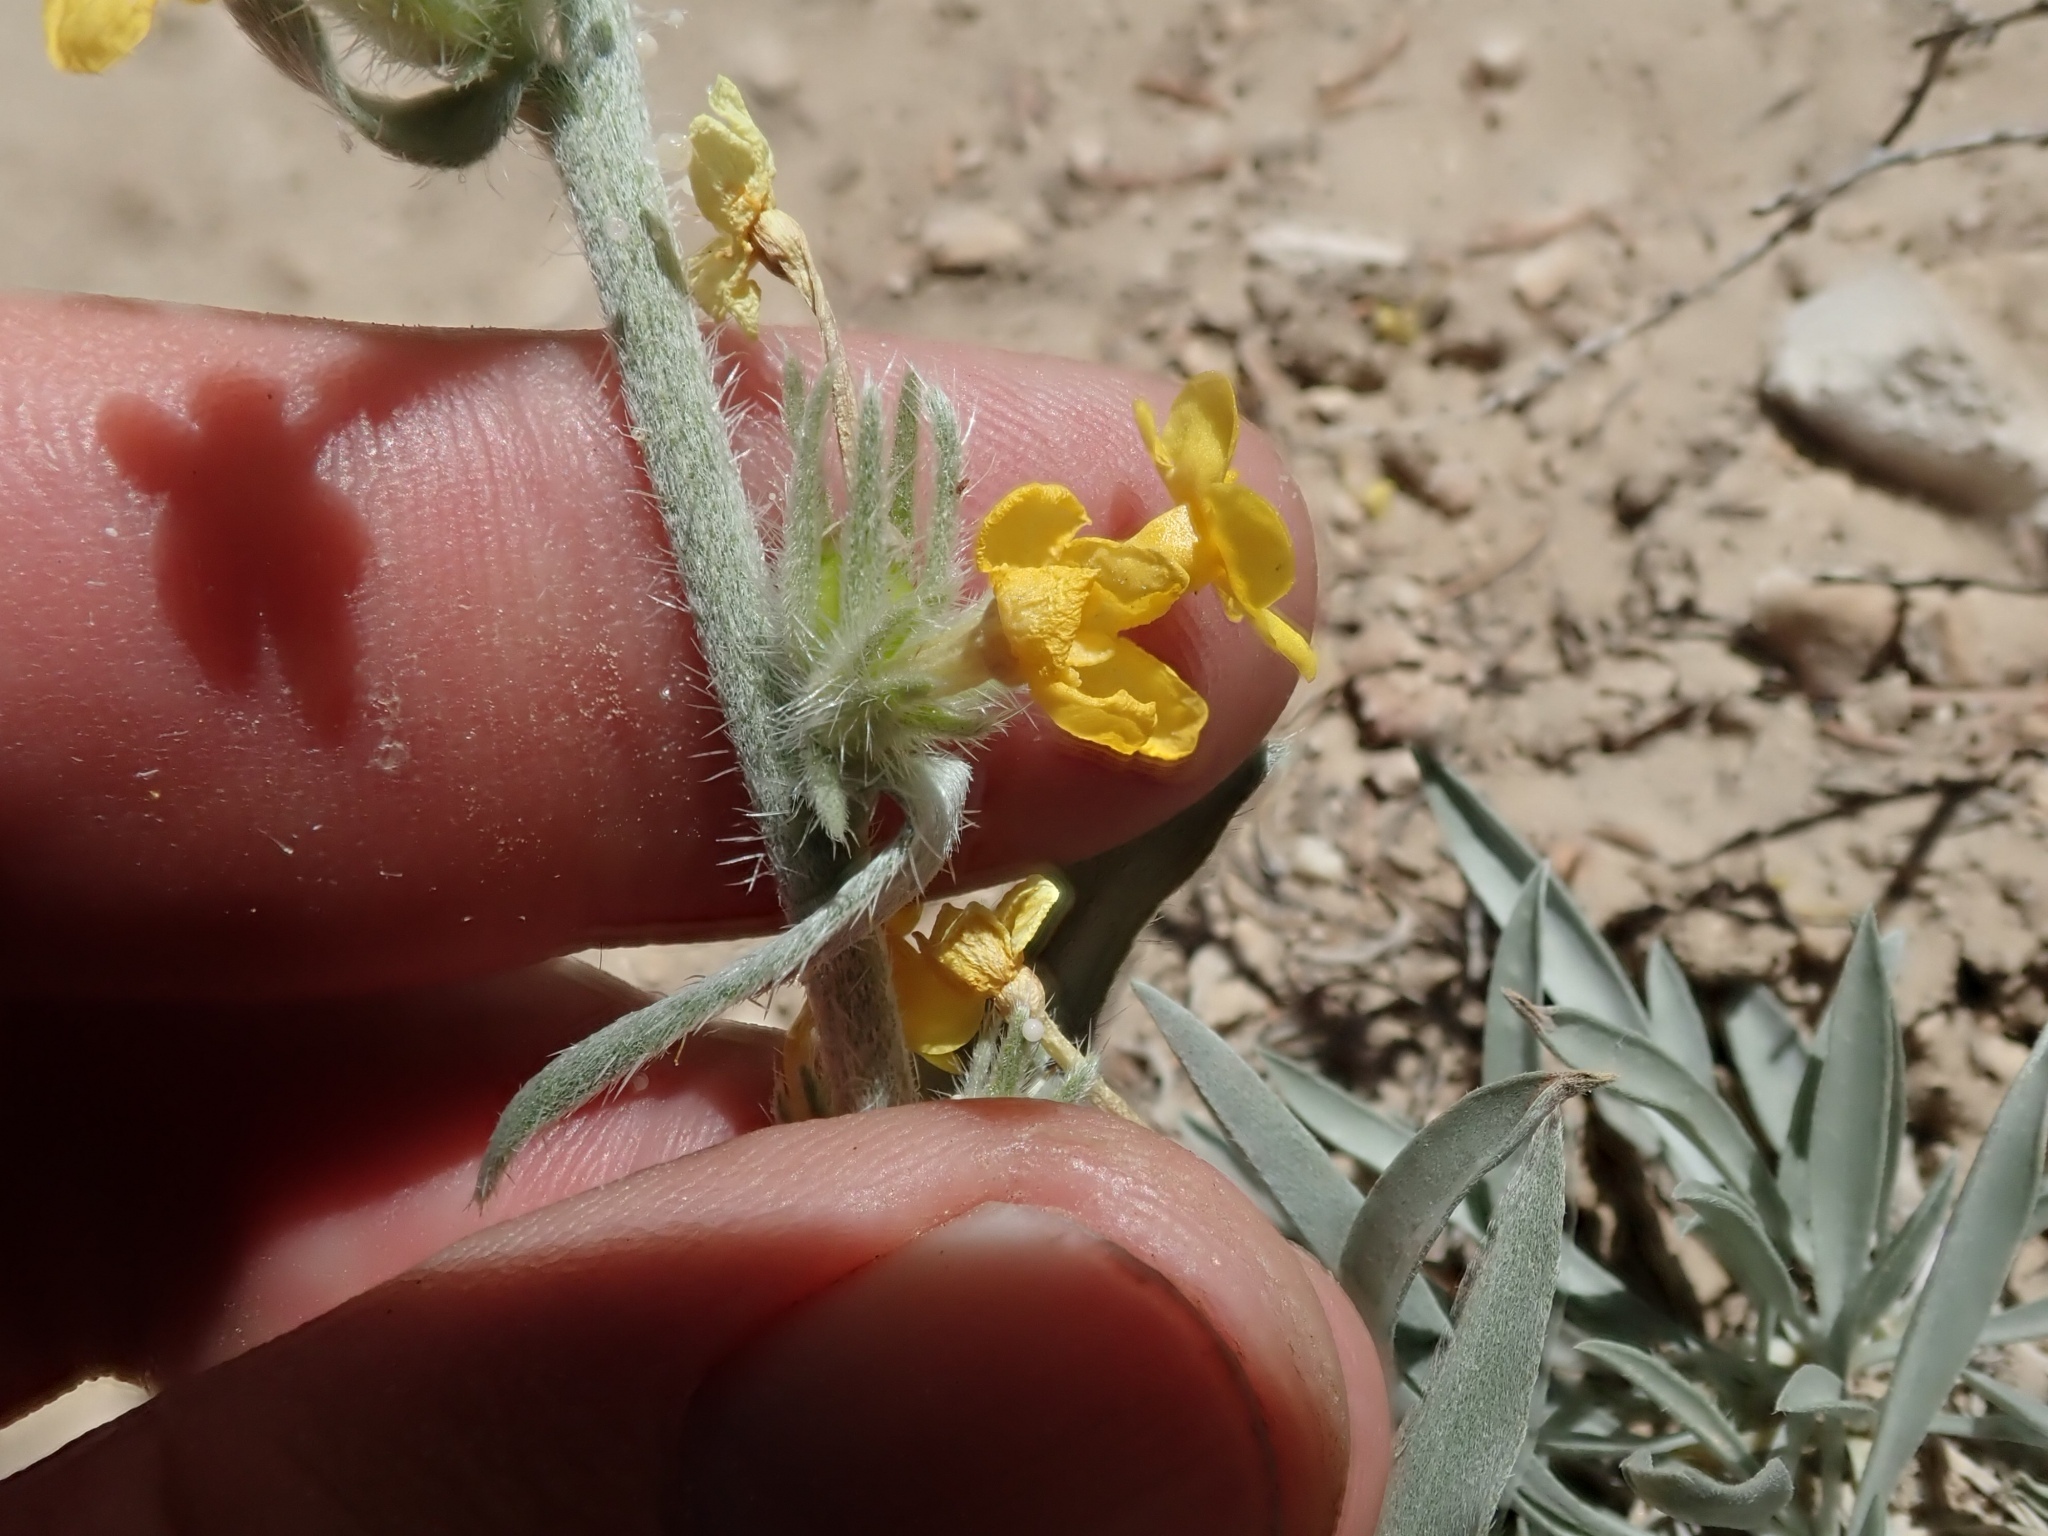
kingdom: Plantae
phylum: Tracheophyta
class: Magnoliopsida
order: Boraginales
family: Boraginaceae
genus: Oreocarya
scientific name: Oreocarya confertiflora
